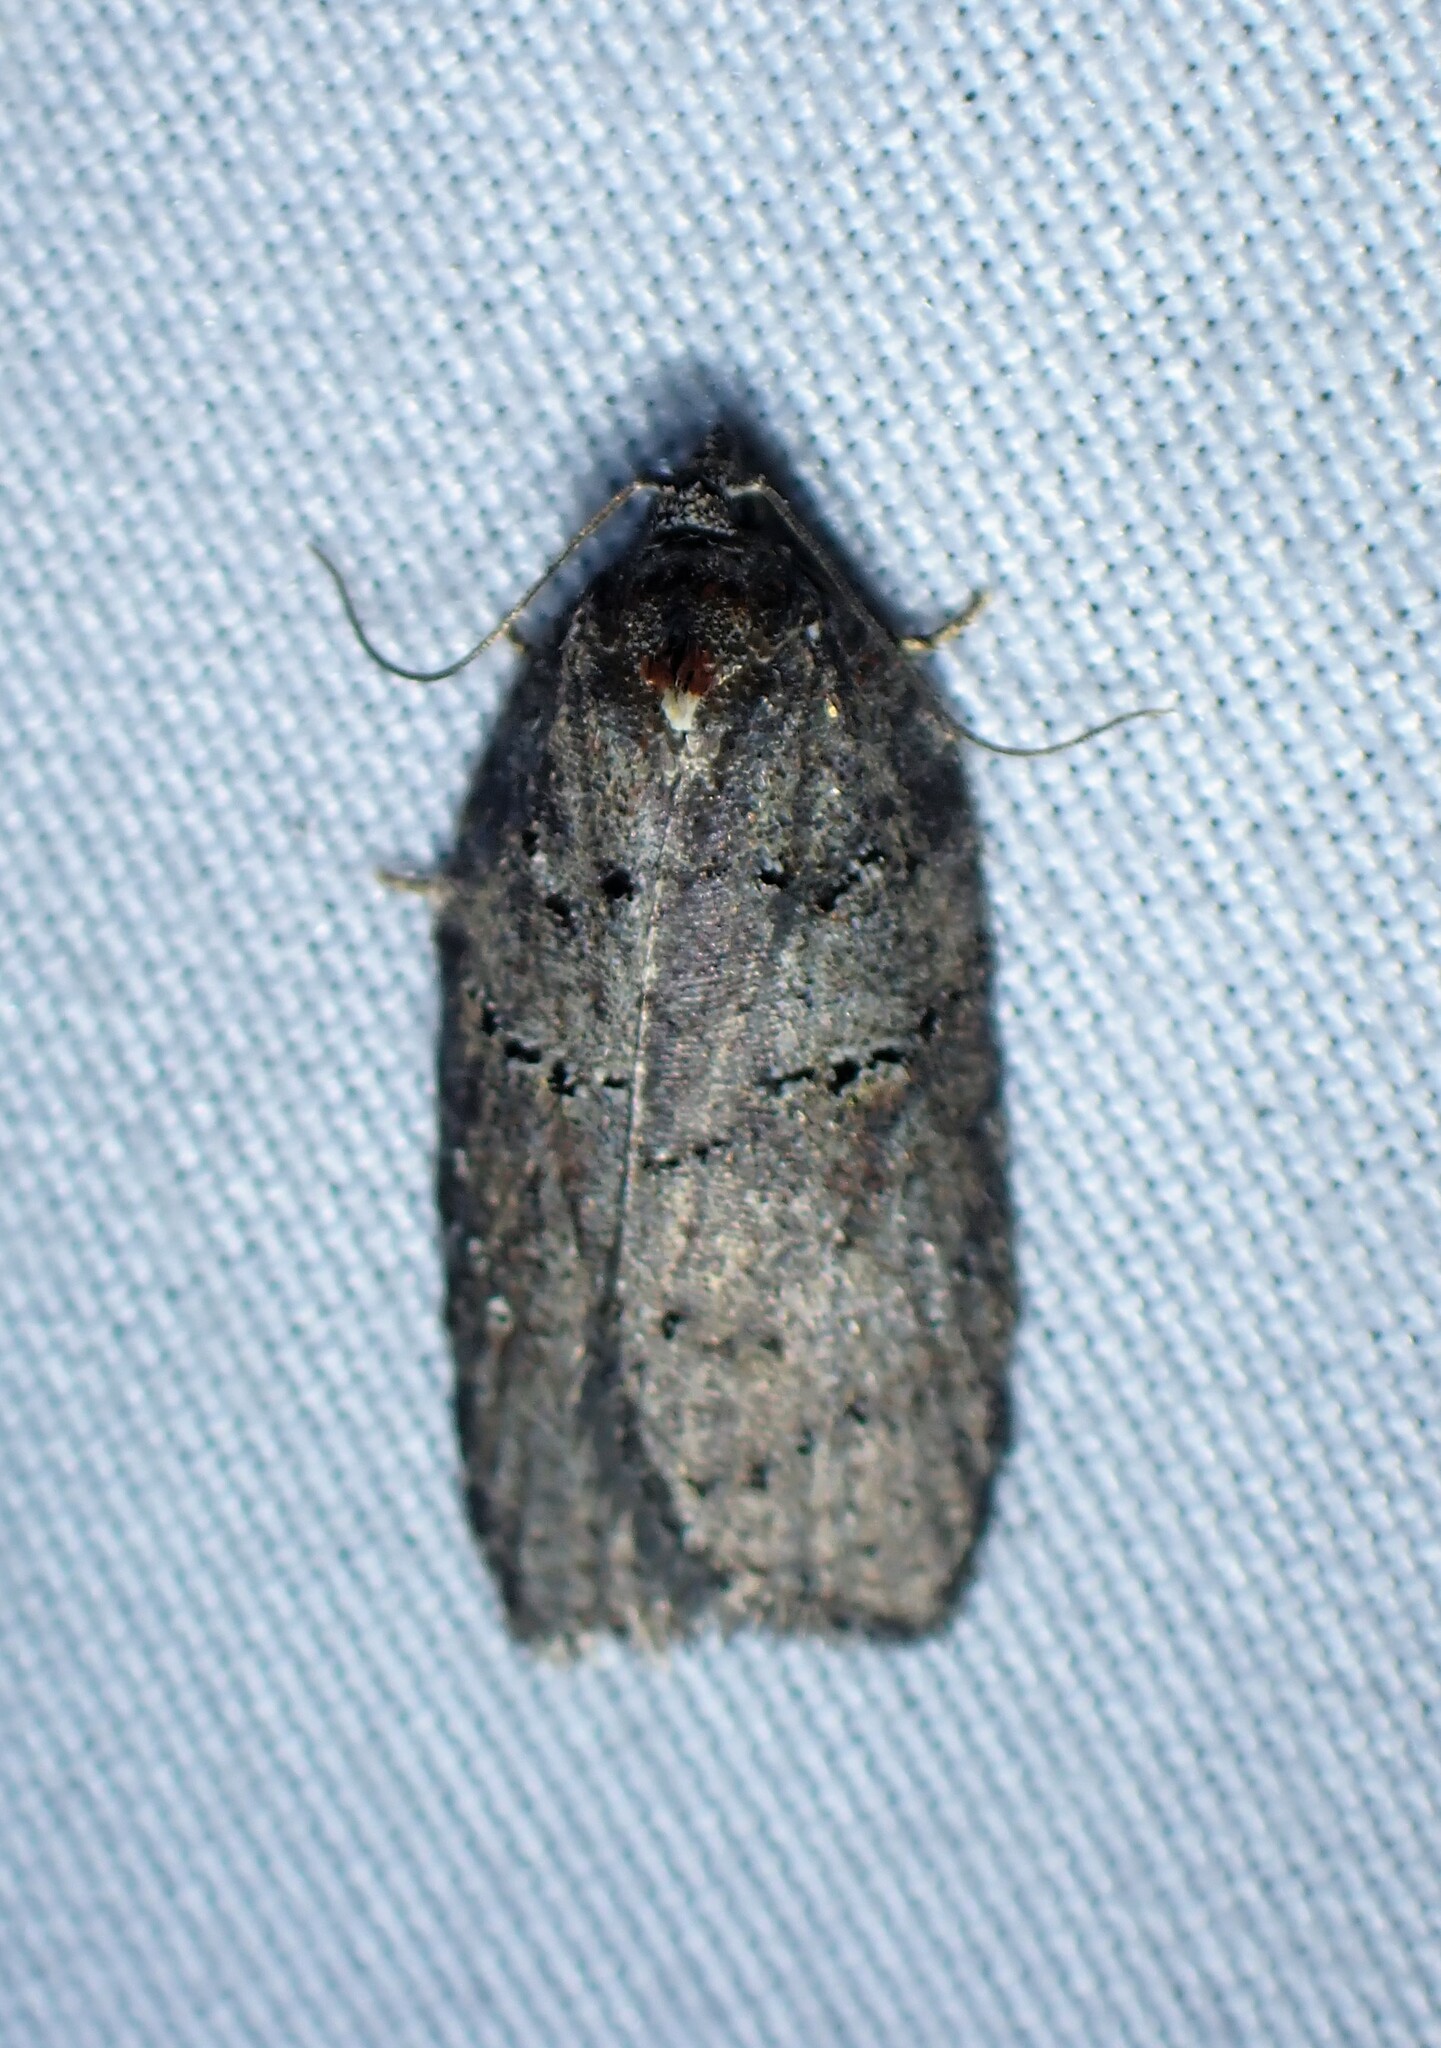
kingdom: Animalia
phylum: Arthropoda
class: Insecta
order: Lepidoptera
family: Tortricidae
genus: Acleris
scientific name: Acleris caliginosana
